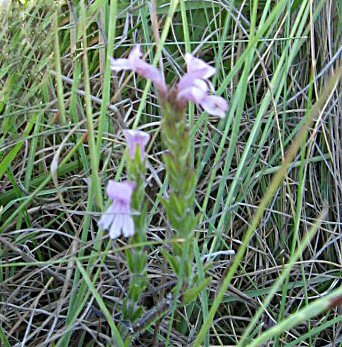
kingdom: Plantae
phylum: Tracheophyta
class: Magnoliopsida
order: Lamiales
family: Orobanchaceae
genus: Striga
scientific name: Striga bilabiata
